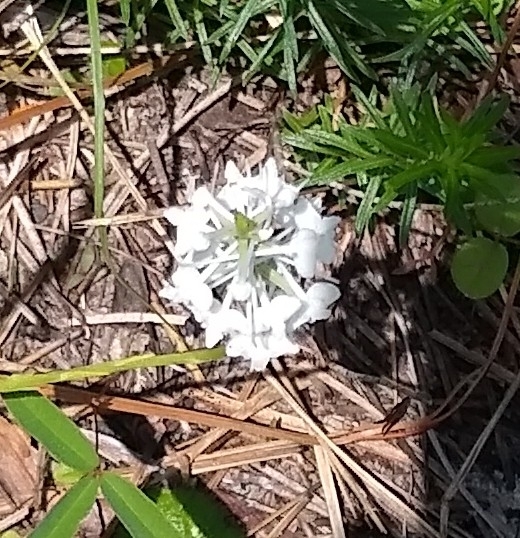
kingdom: Plantae
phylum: Tracheophyta
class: Liliopsida
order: Asparagales
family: Orchidaceae
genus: Platanthera
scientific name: Platanthera nivea
